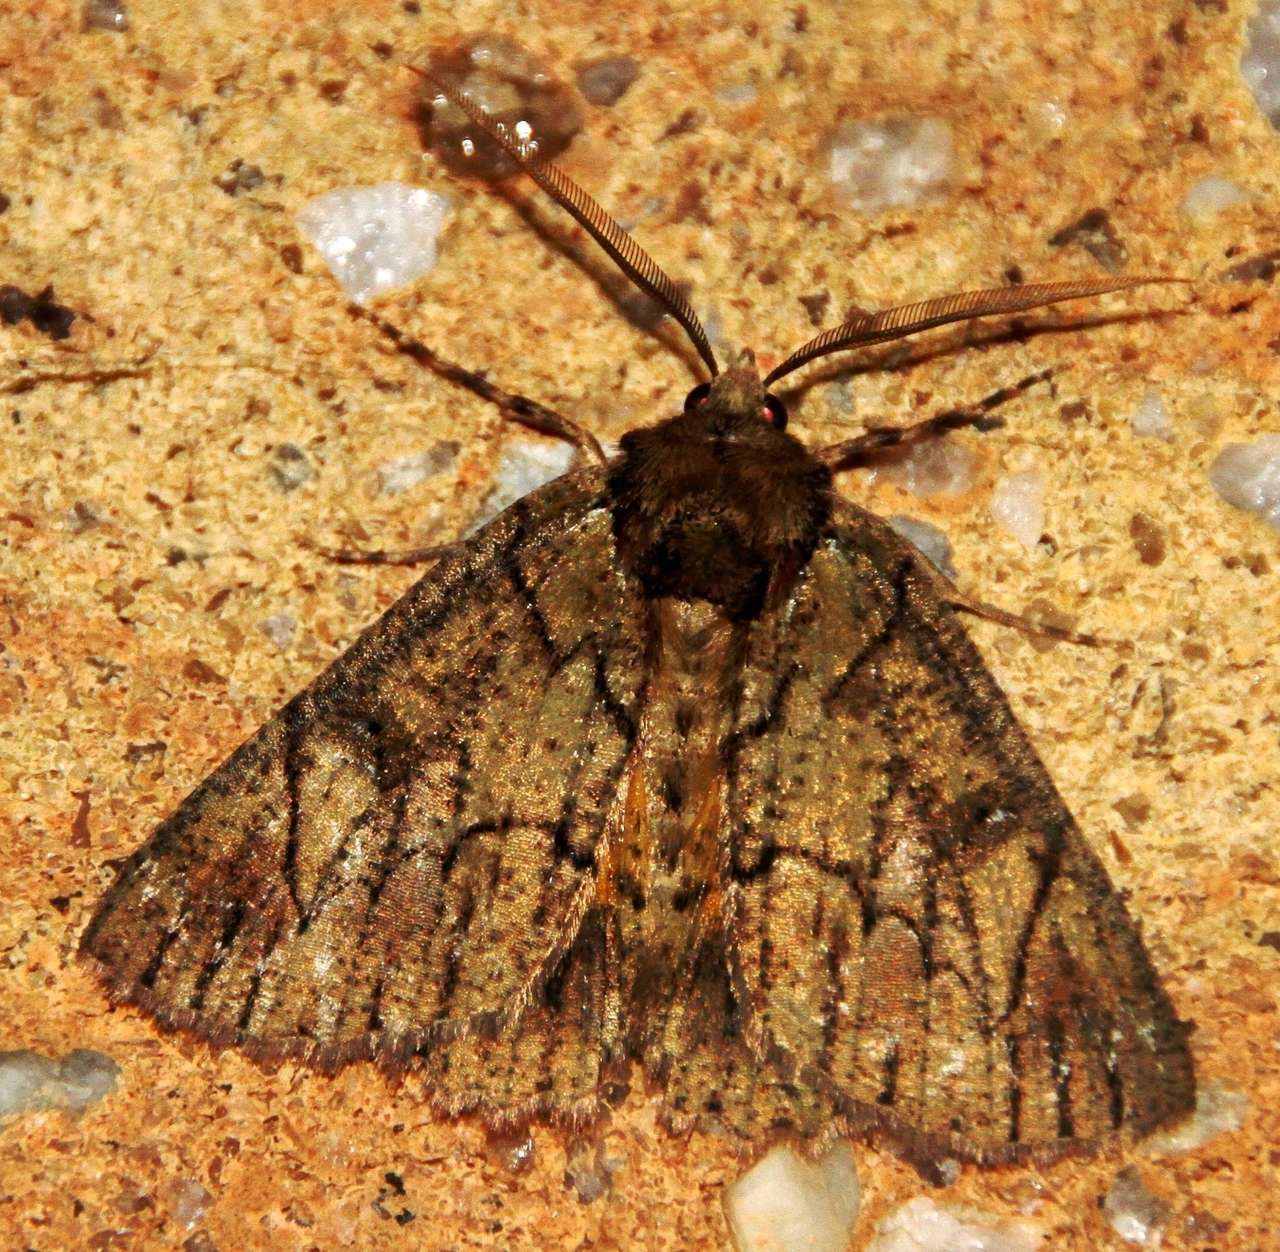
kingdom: Animalia
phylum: Arthropoda
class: Insecta
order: Lepidoptera
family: Geometridae
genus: Heliomystis
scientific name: Heliomystis electrica
